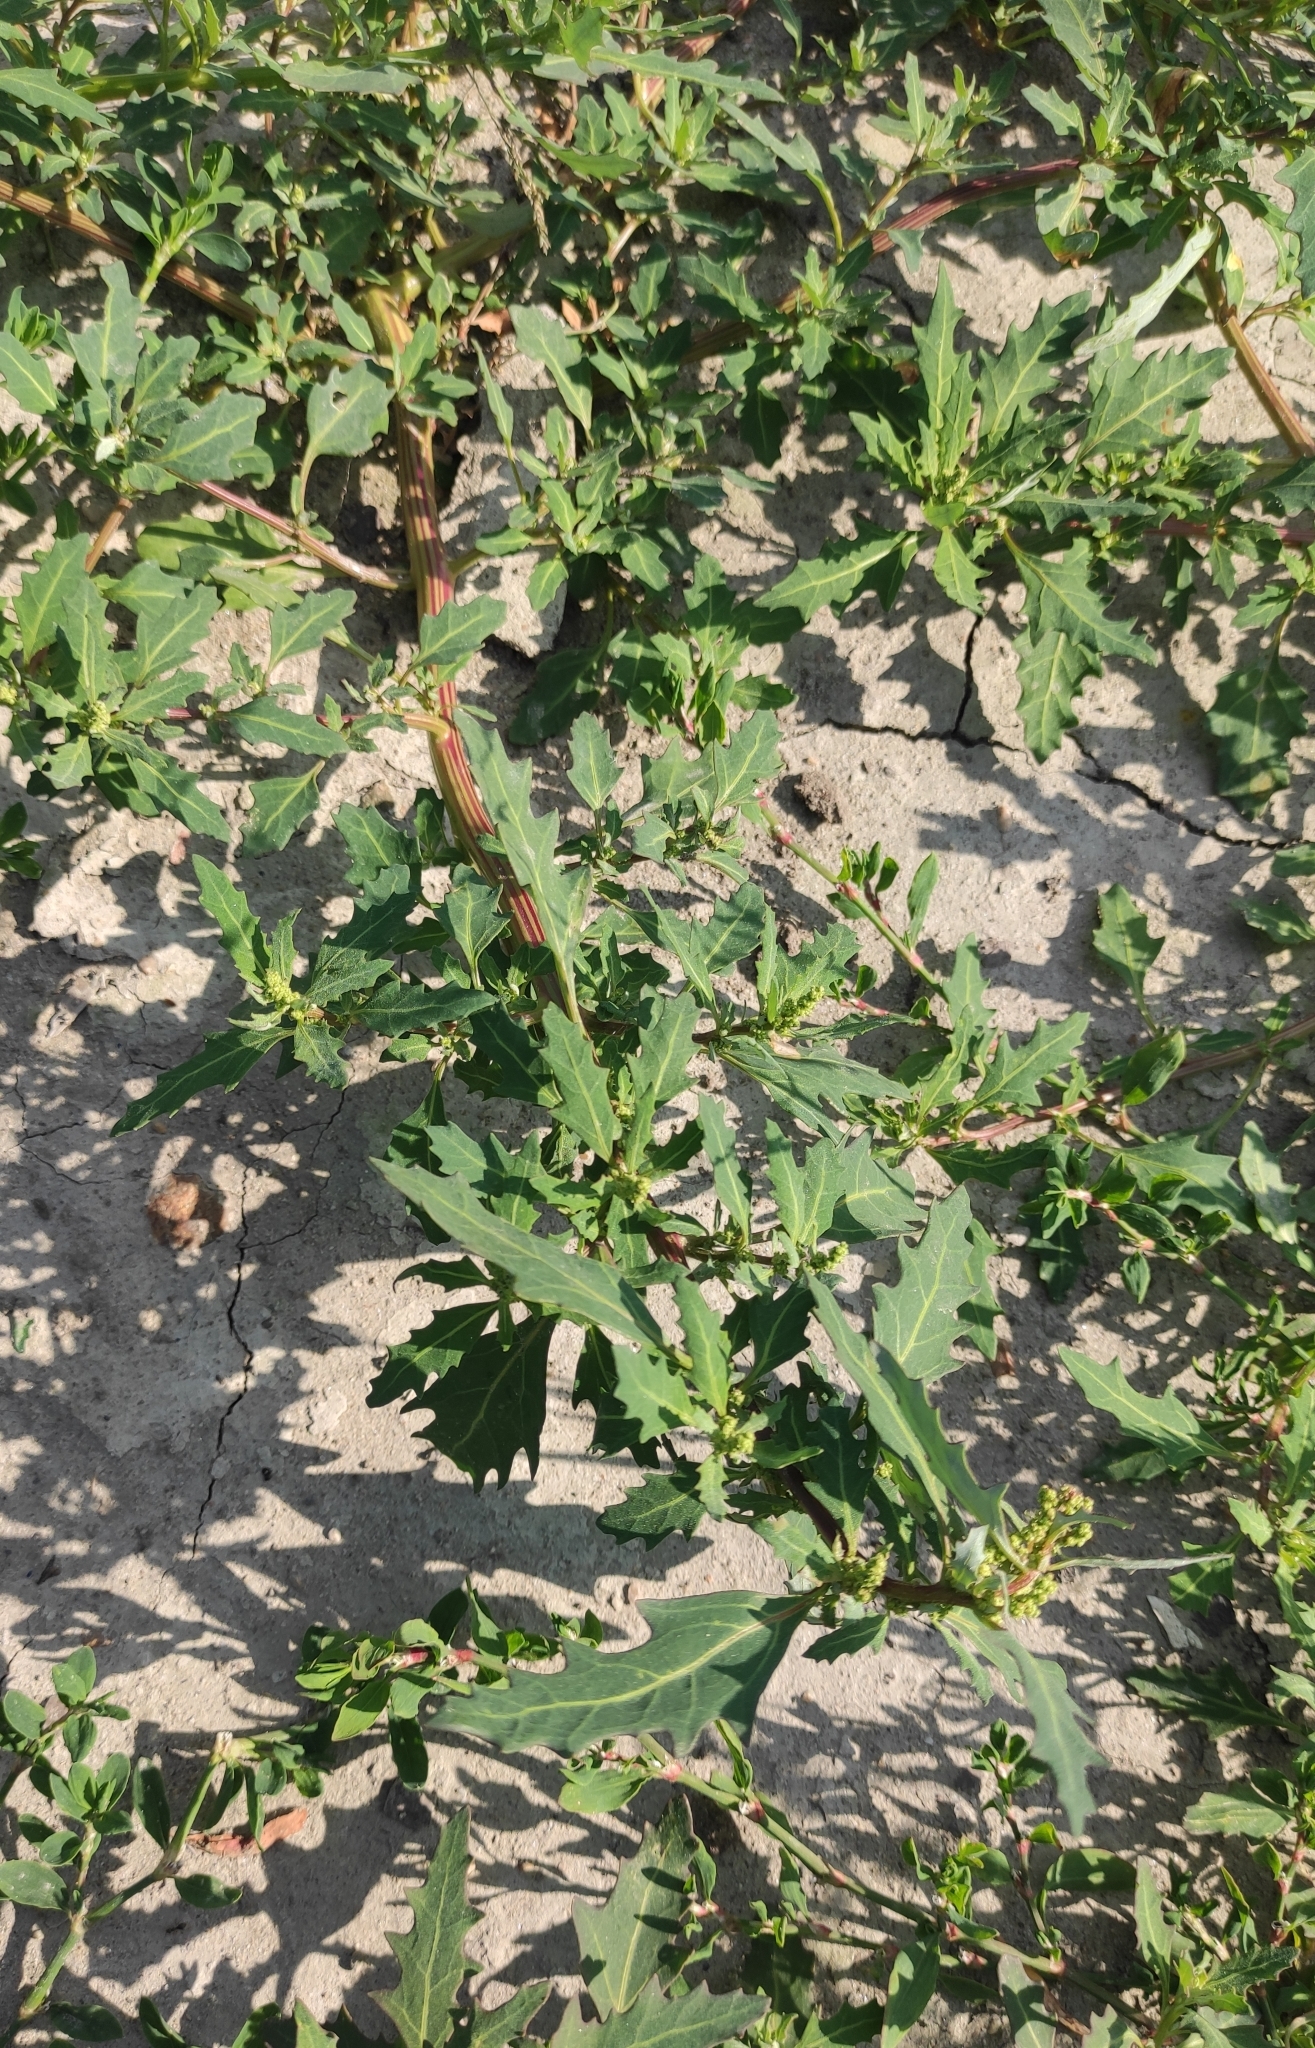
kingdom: Plantae
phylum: Tracheophyta
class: Magnoliopsida
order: Caryophyllales
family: Amaranthaceae
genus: Oxybasis
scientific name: Oxybasis glauca
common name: Glaucous goosefoot
